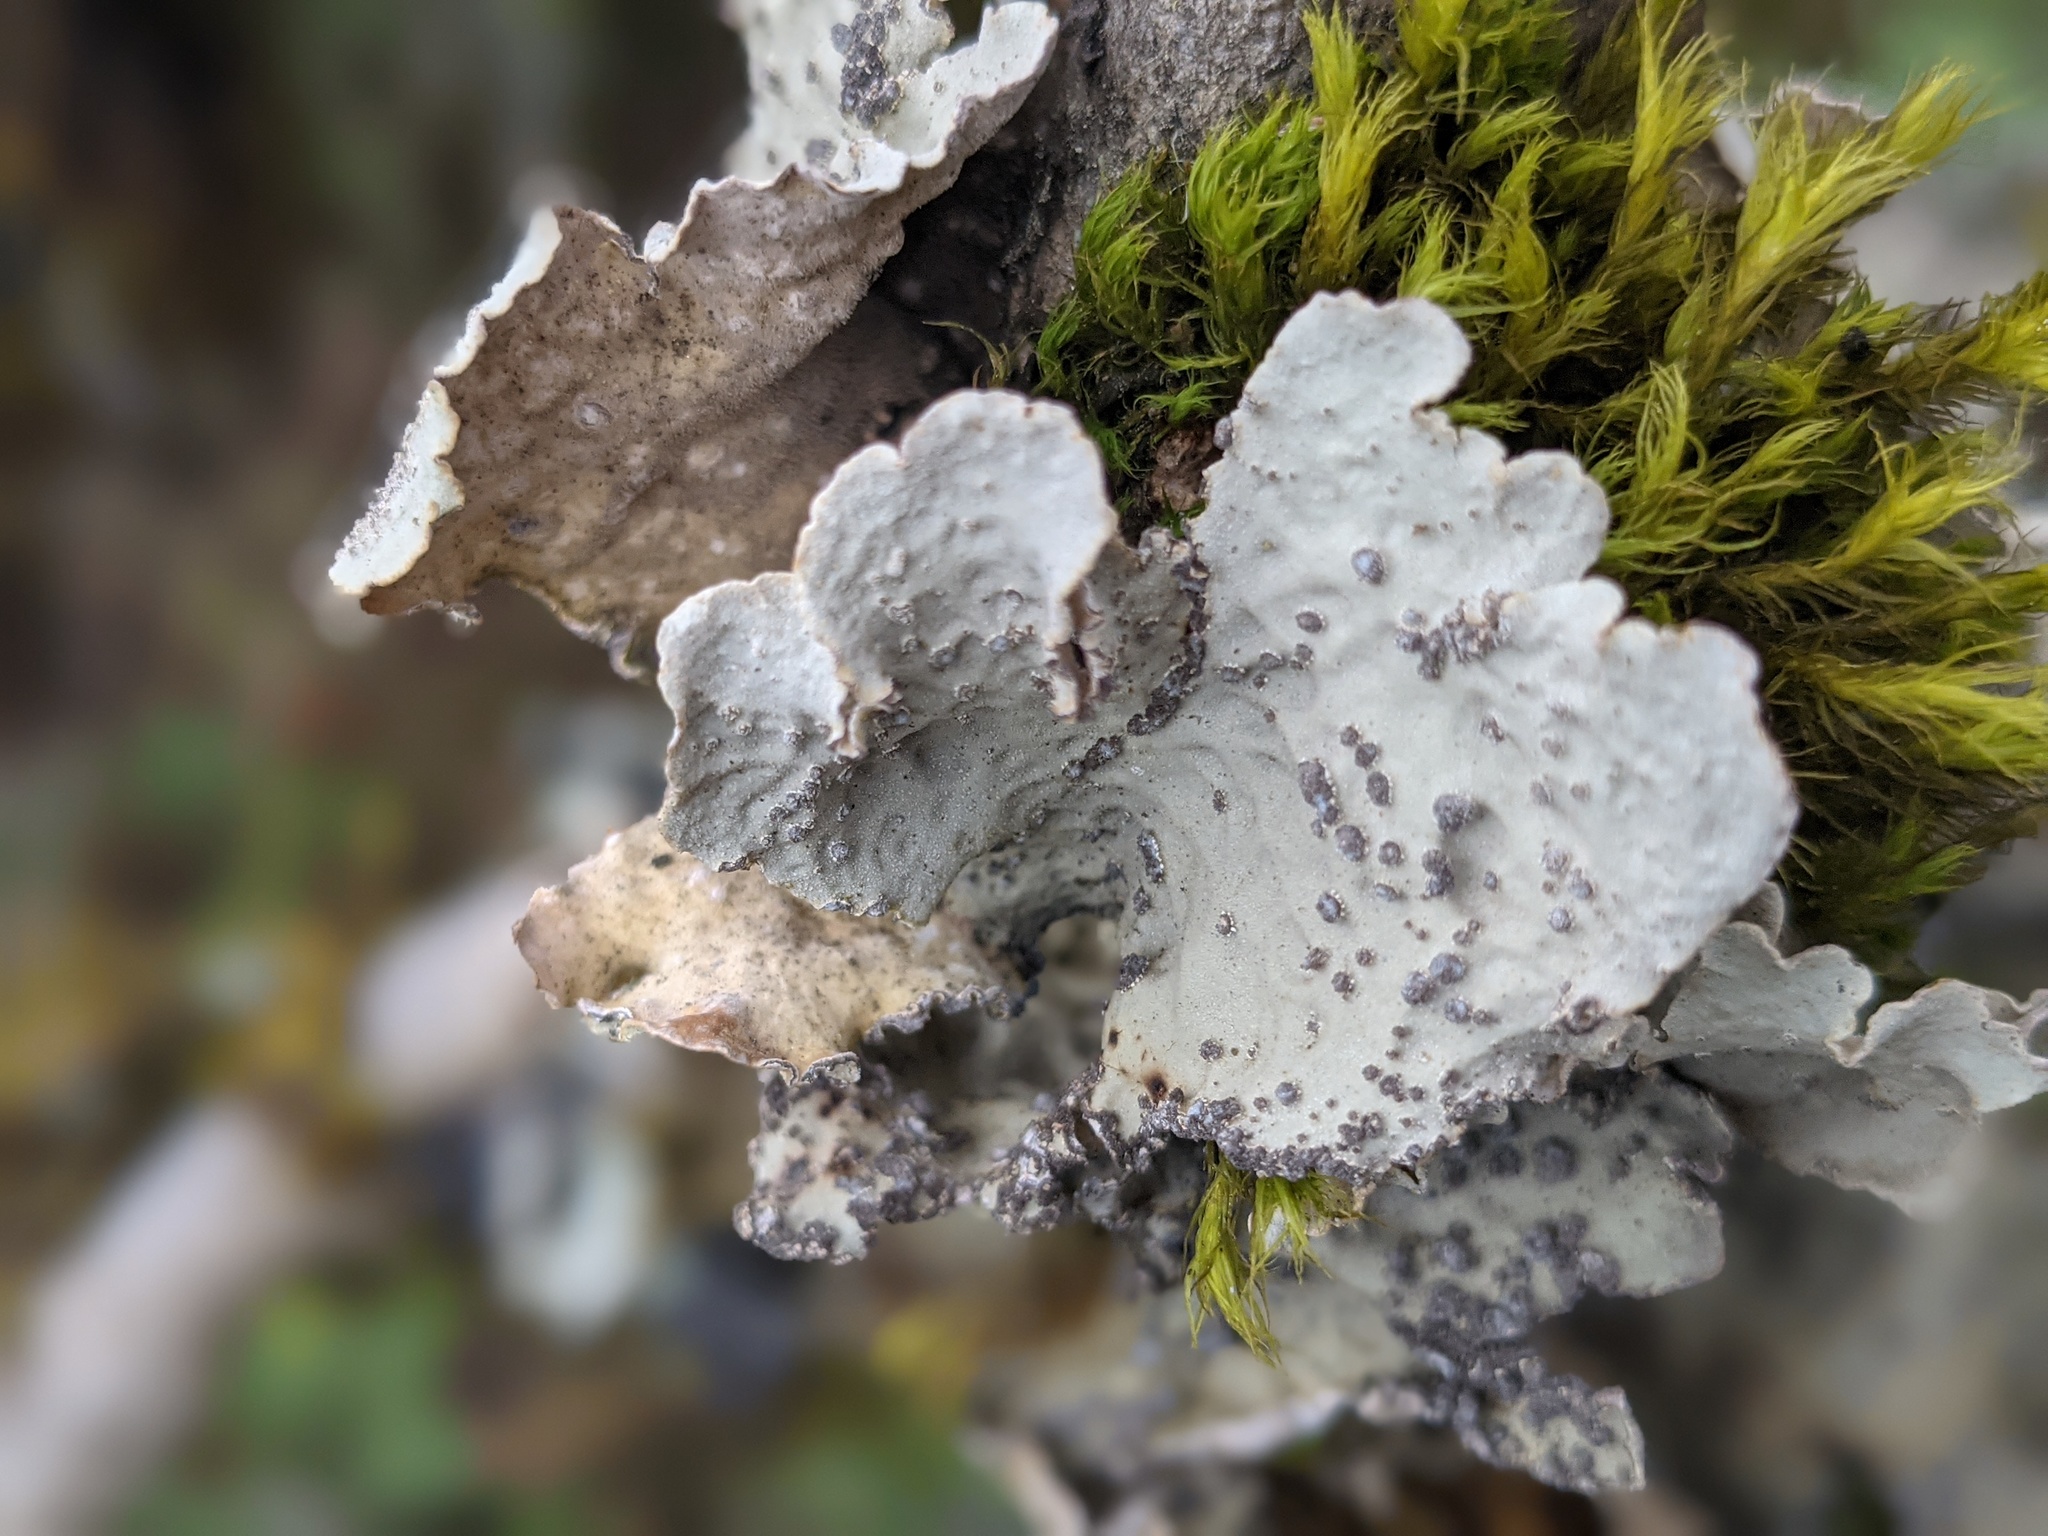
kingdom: Fungi
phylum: Ascomycota
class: Lecanoromycetes
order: Peltigerales
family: Lobariaceae
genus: Lobarina
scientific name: Lobarina scrobiculata
